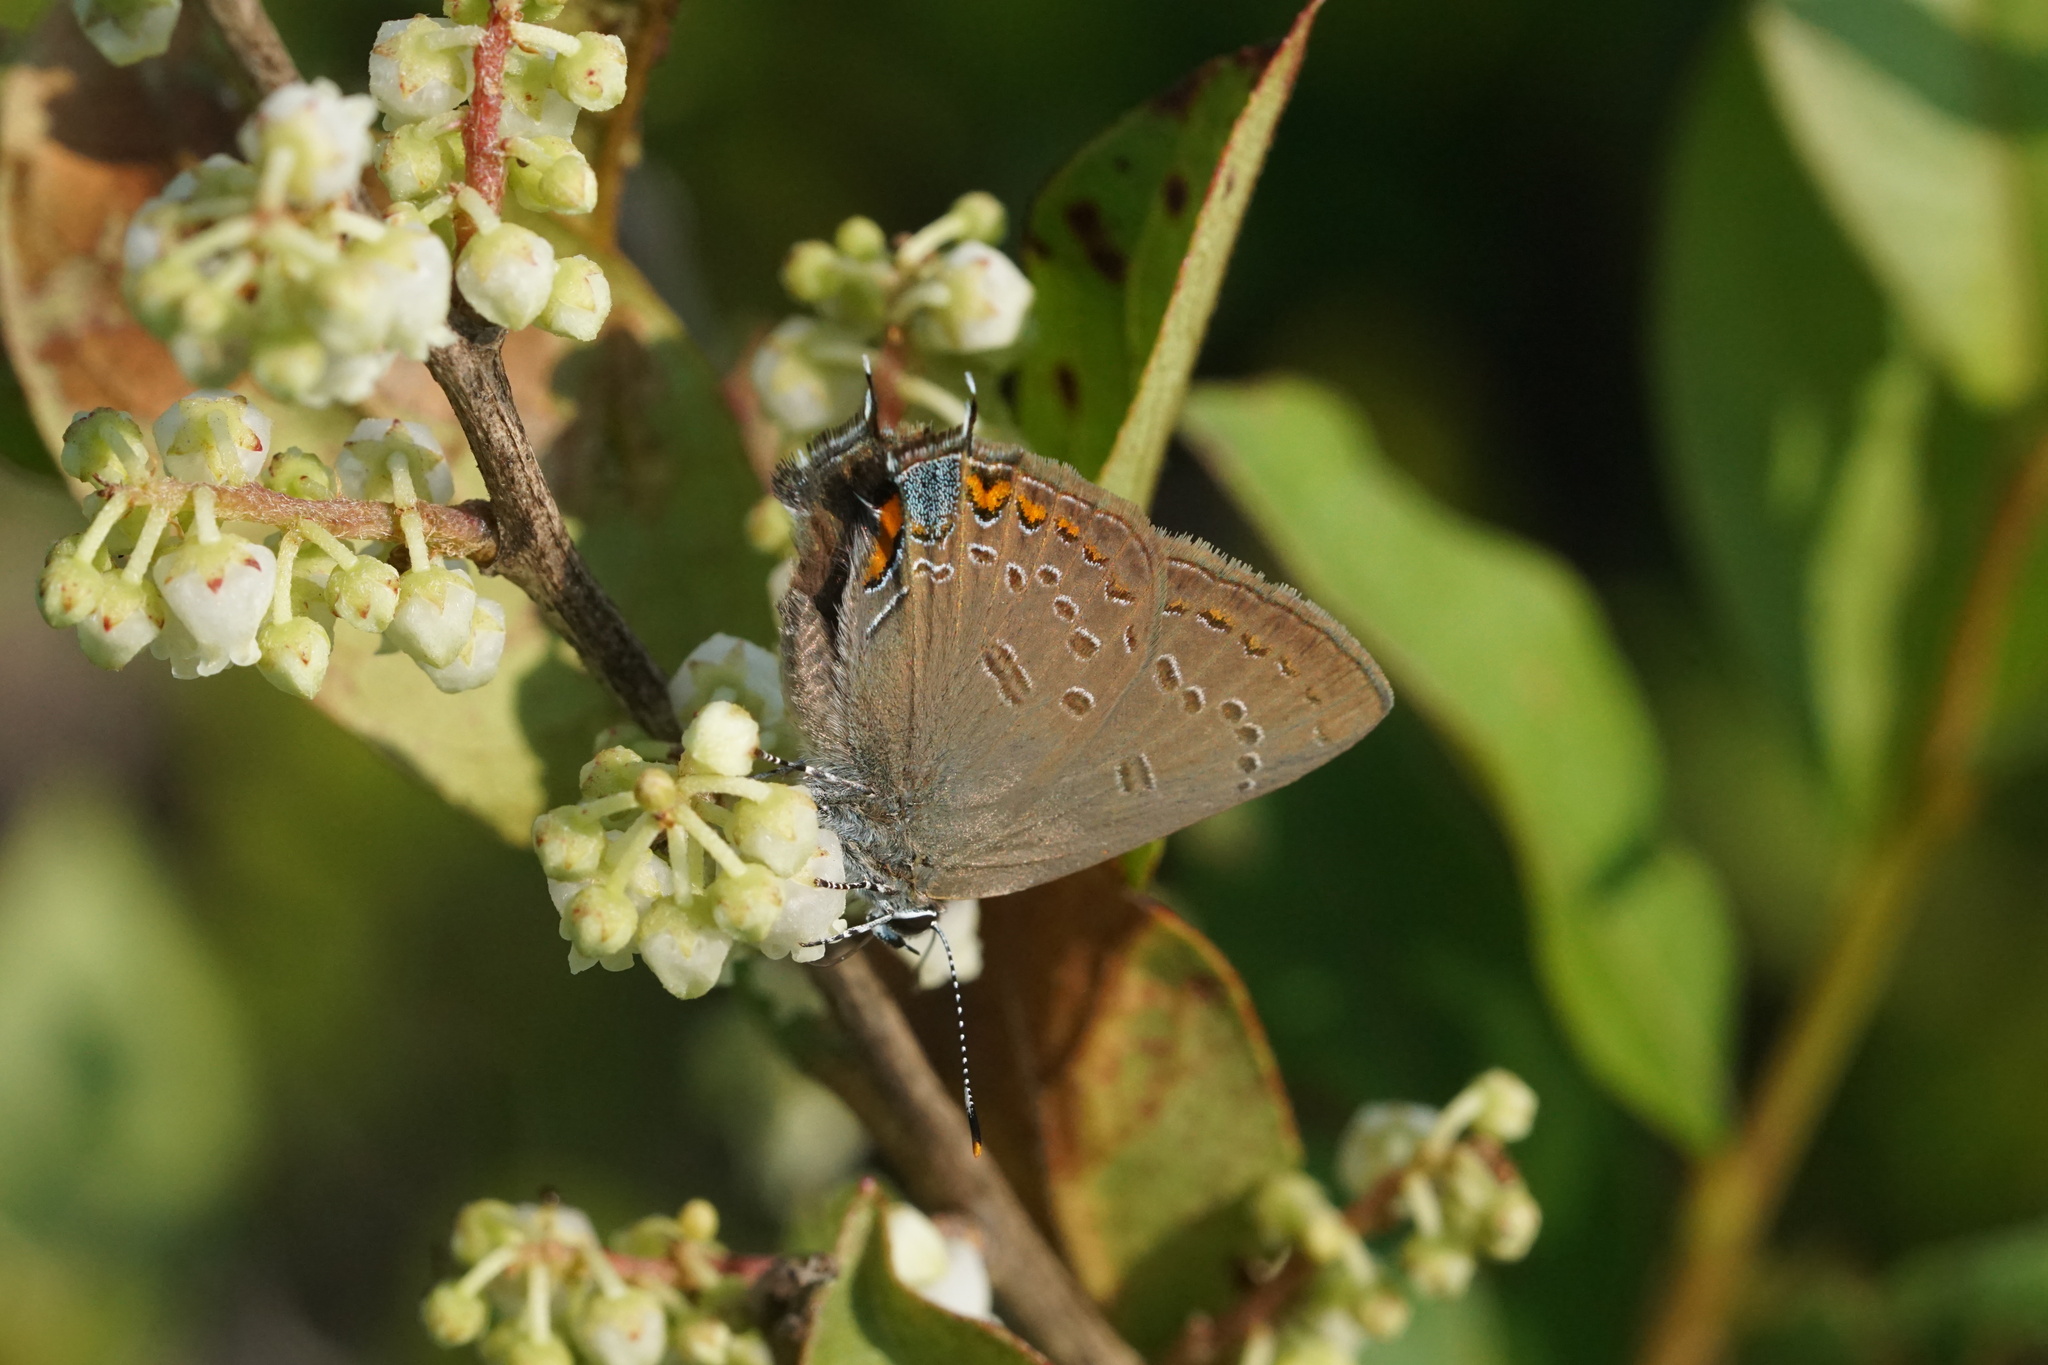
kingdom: Animalia
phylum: Arthropoda
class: Insecta
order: Lepidoptera
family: Lycaenidae
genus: Satyrium
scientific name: Satyrium edwardsii
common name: Edwards' hairstreak
